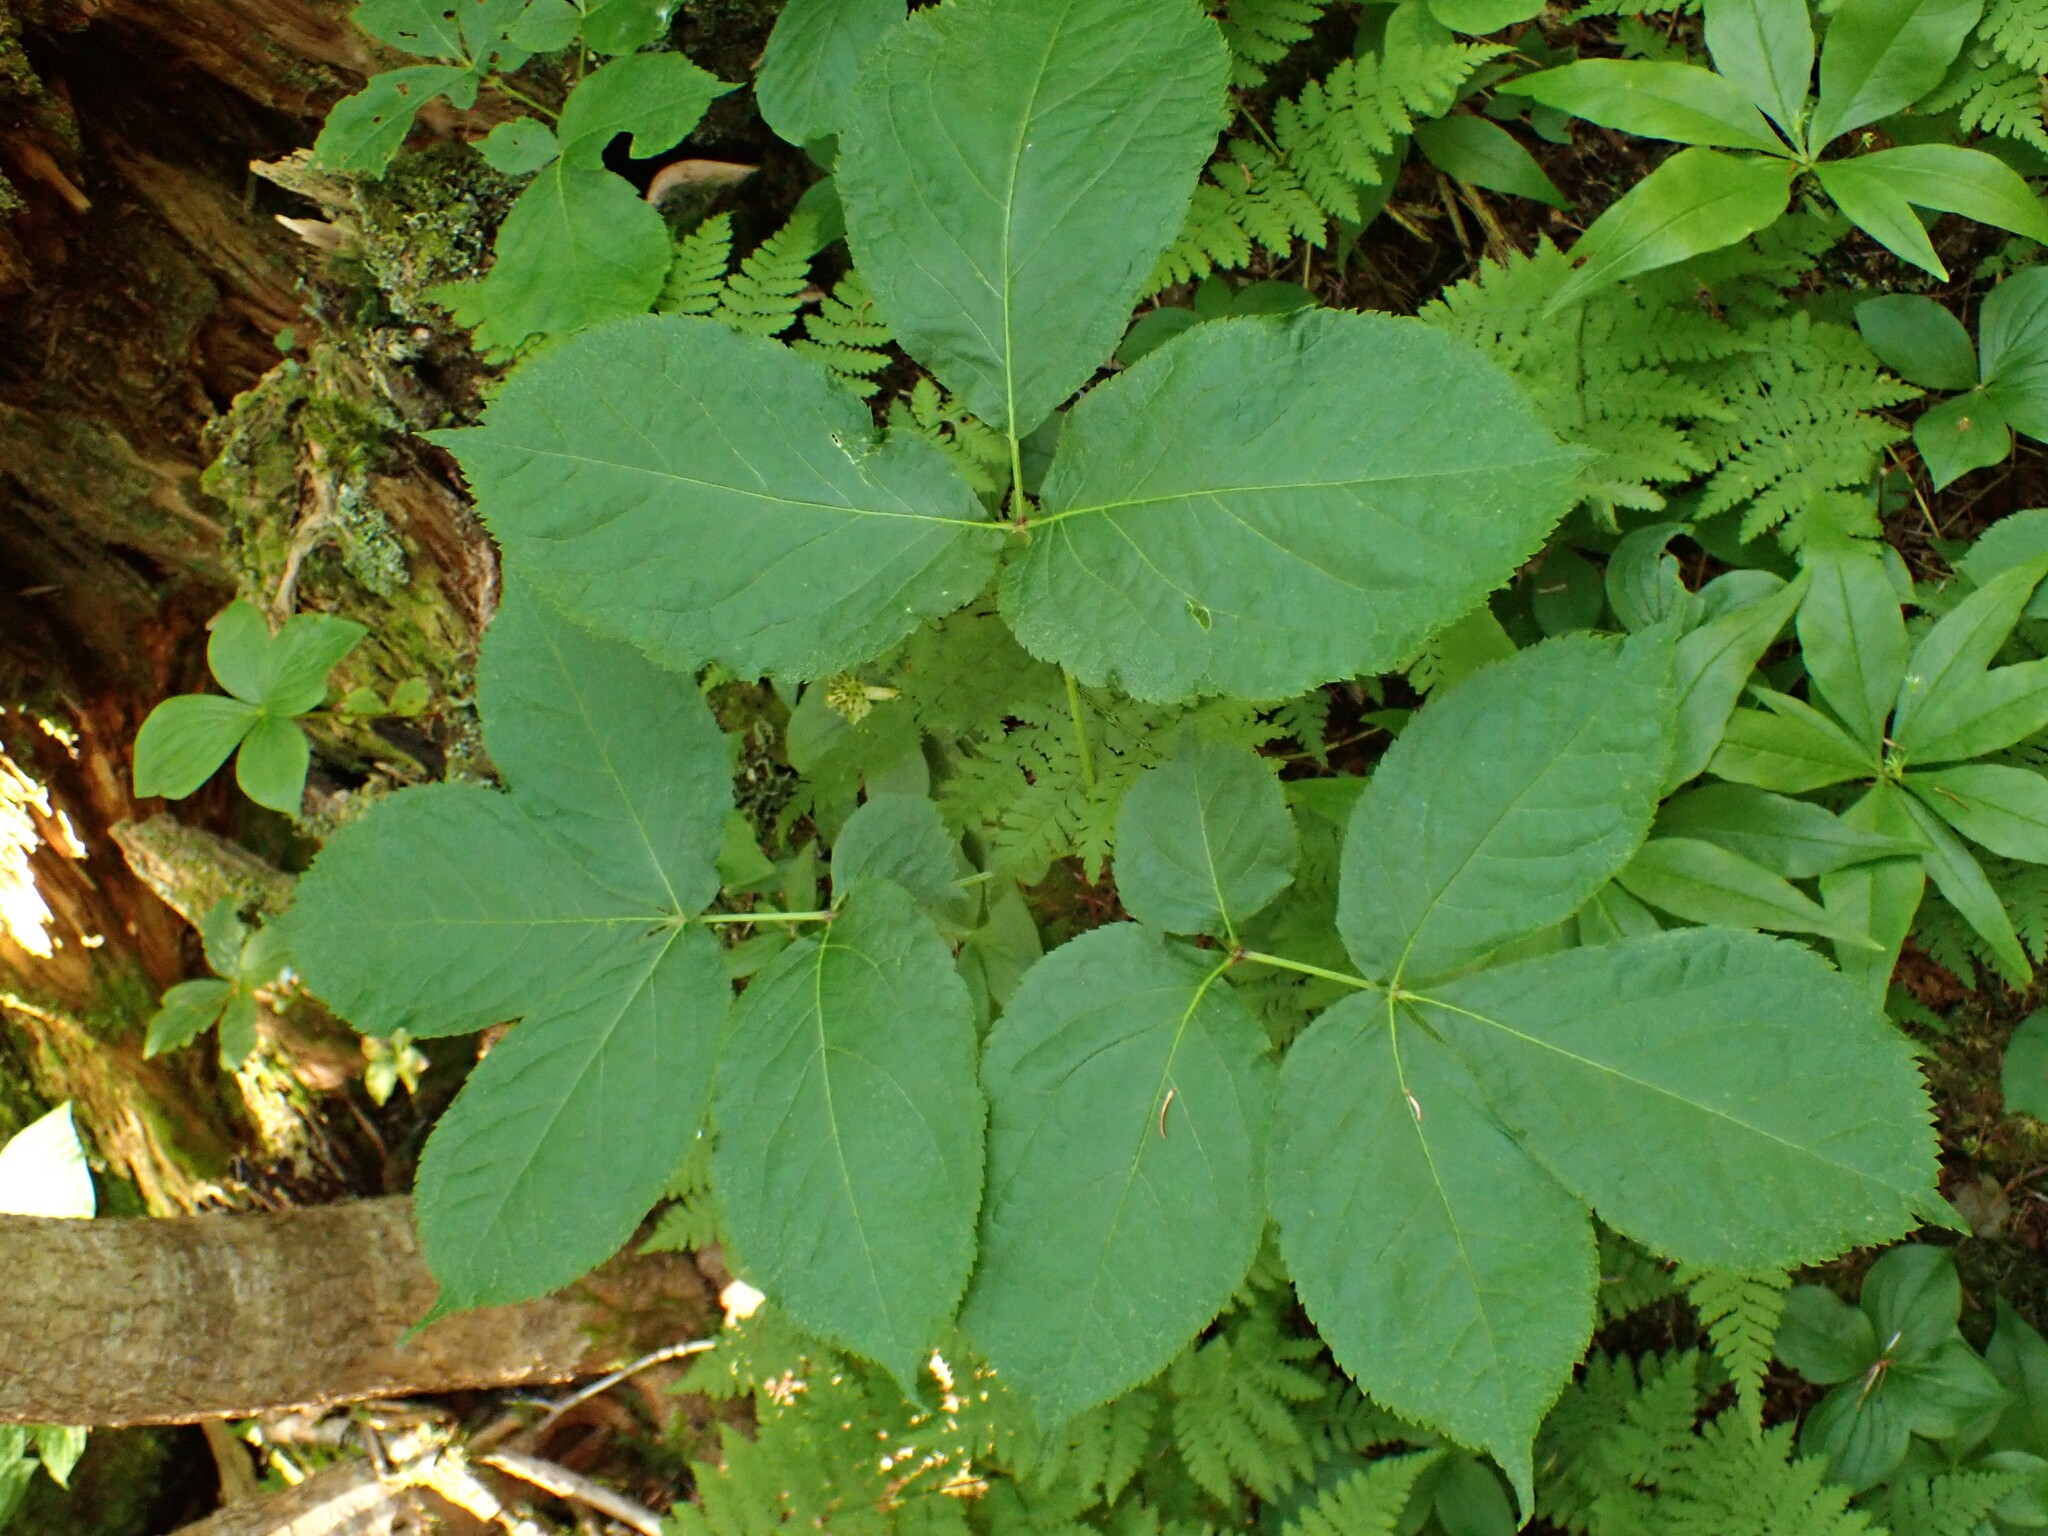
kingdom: Plantae
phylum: Tracheophyta
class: Magnoliopsida
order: Apiales
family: Araliaceae
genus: Aralia
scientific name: Aralia nudicaulis
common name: Wild sarsaparilla
